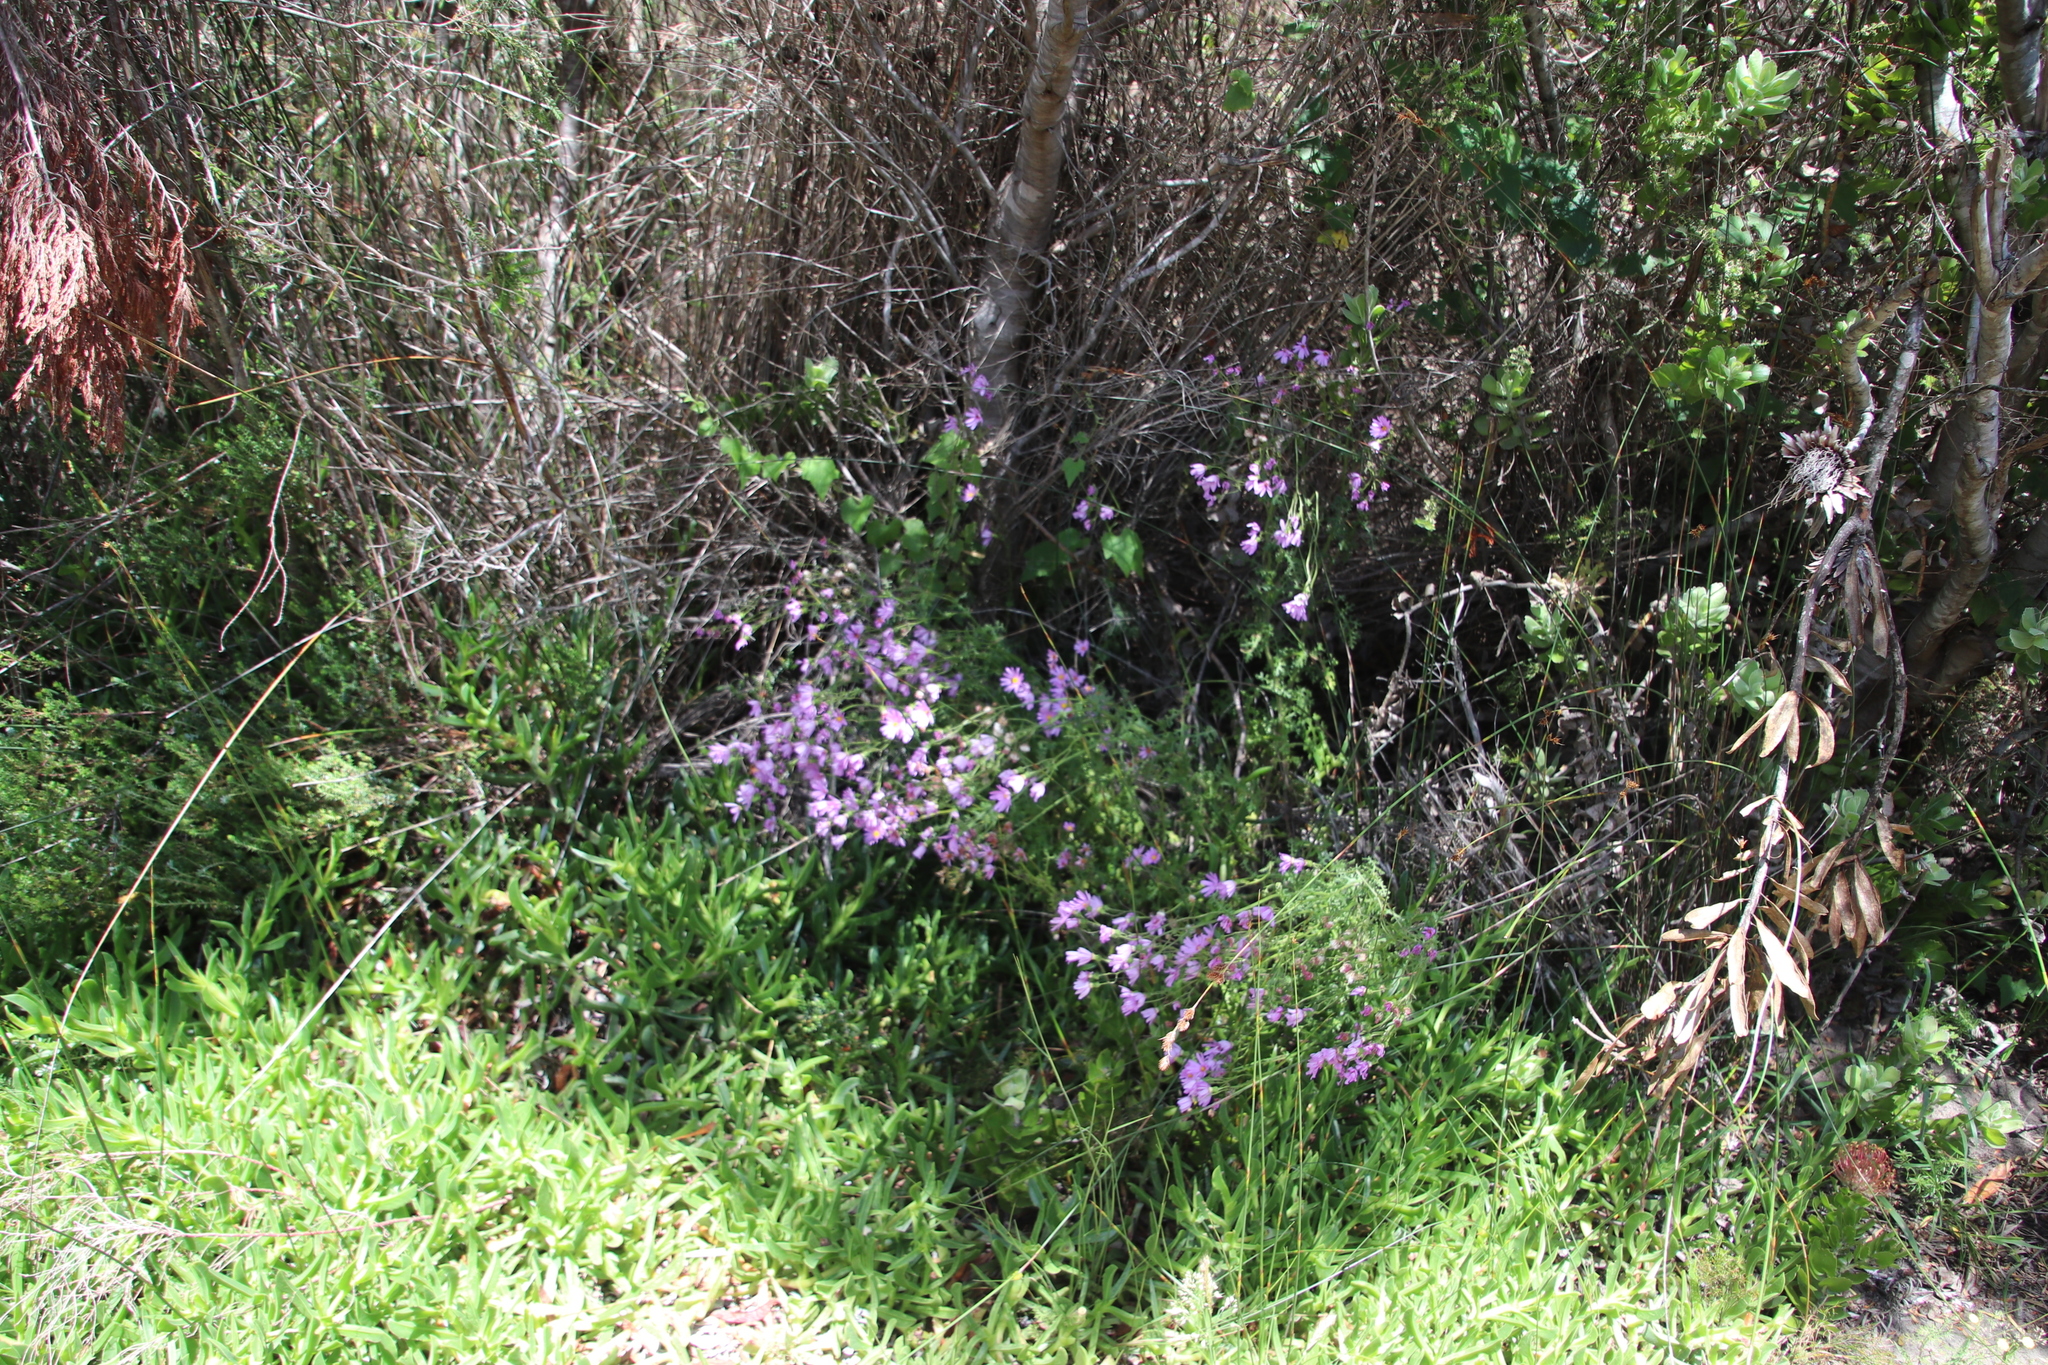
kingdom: Plantae
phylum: Tracheophyta
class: Magnoliopsida
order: Asterales
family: Asteraceae
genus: Senecio
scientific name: Senecio elegans
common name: Purple groundsel
